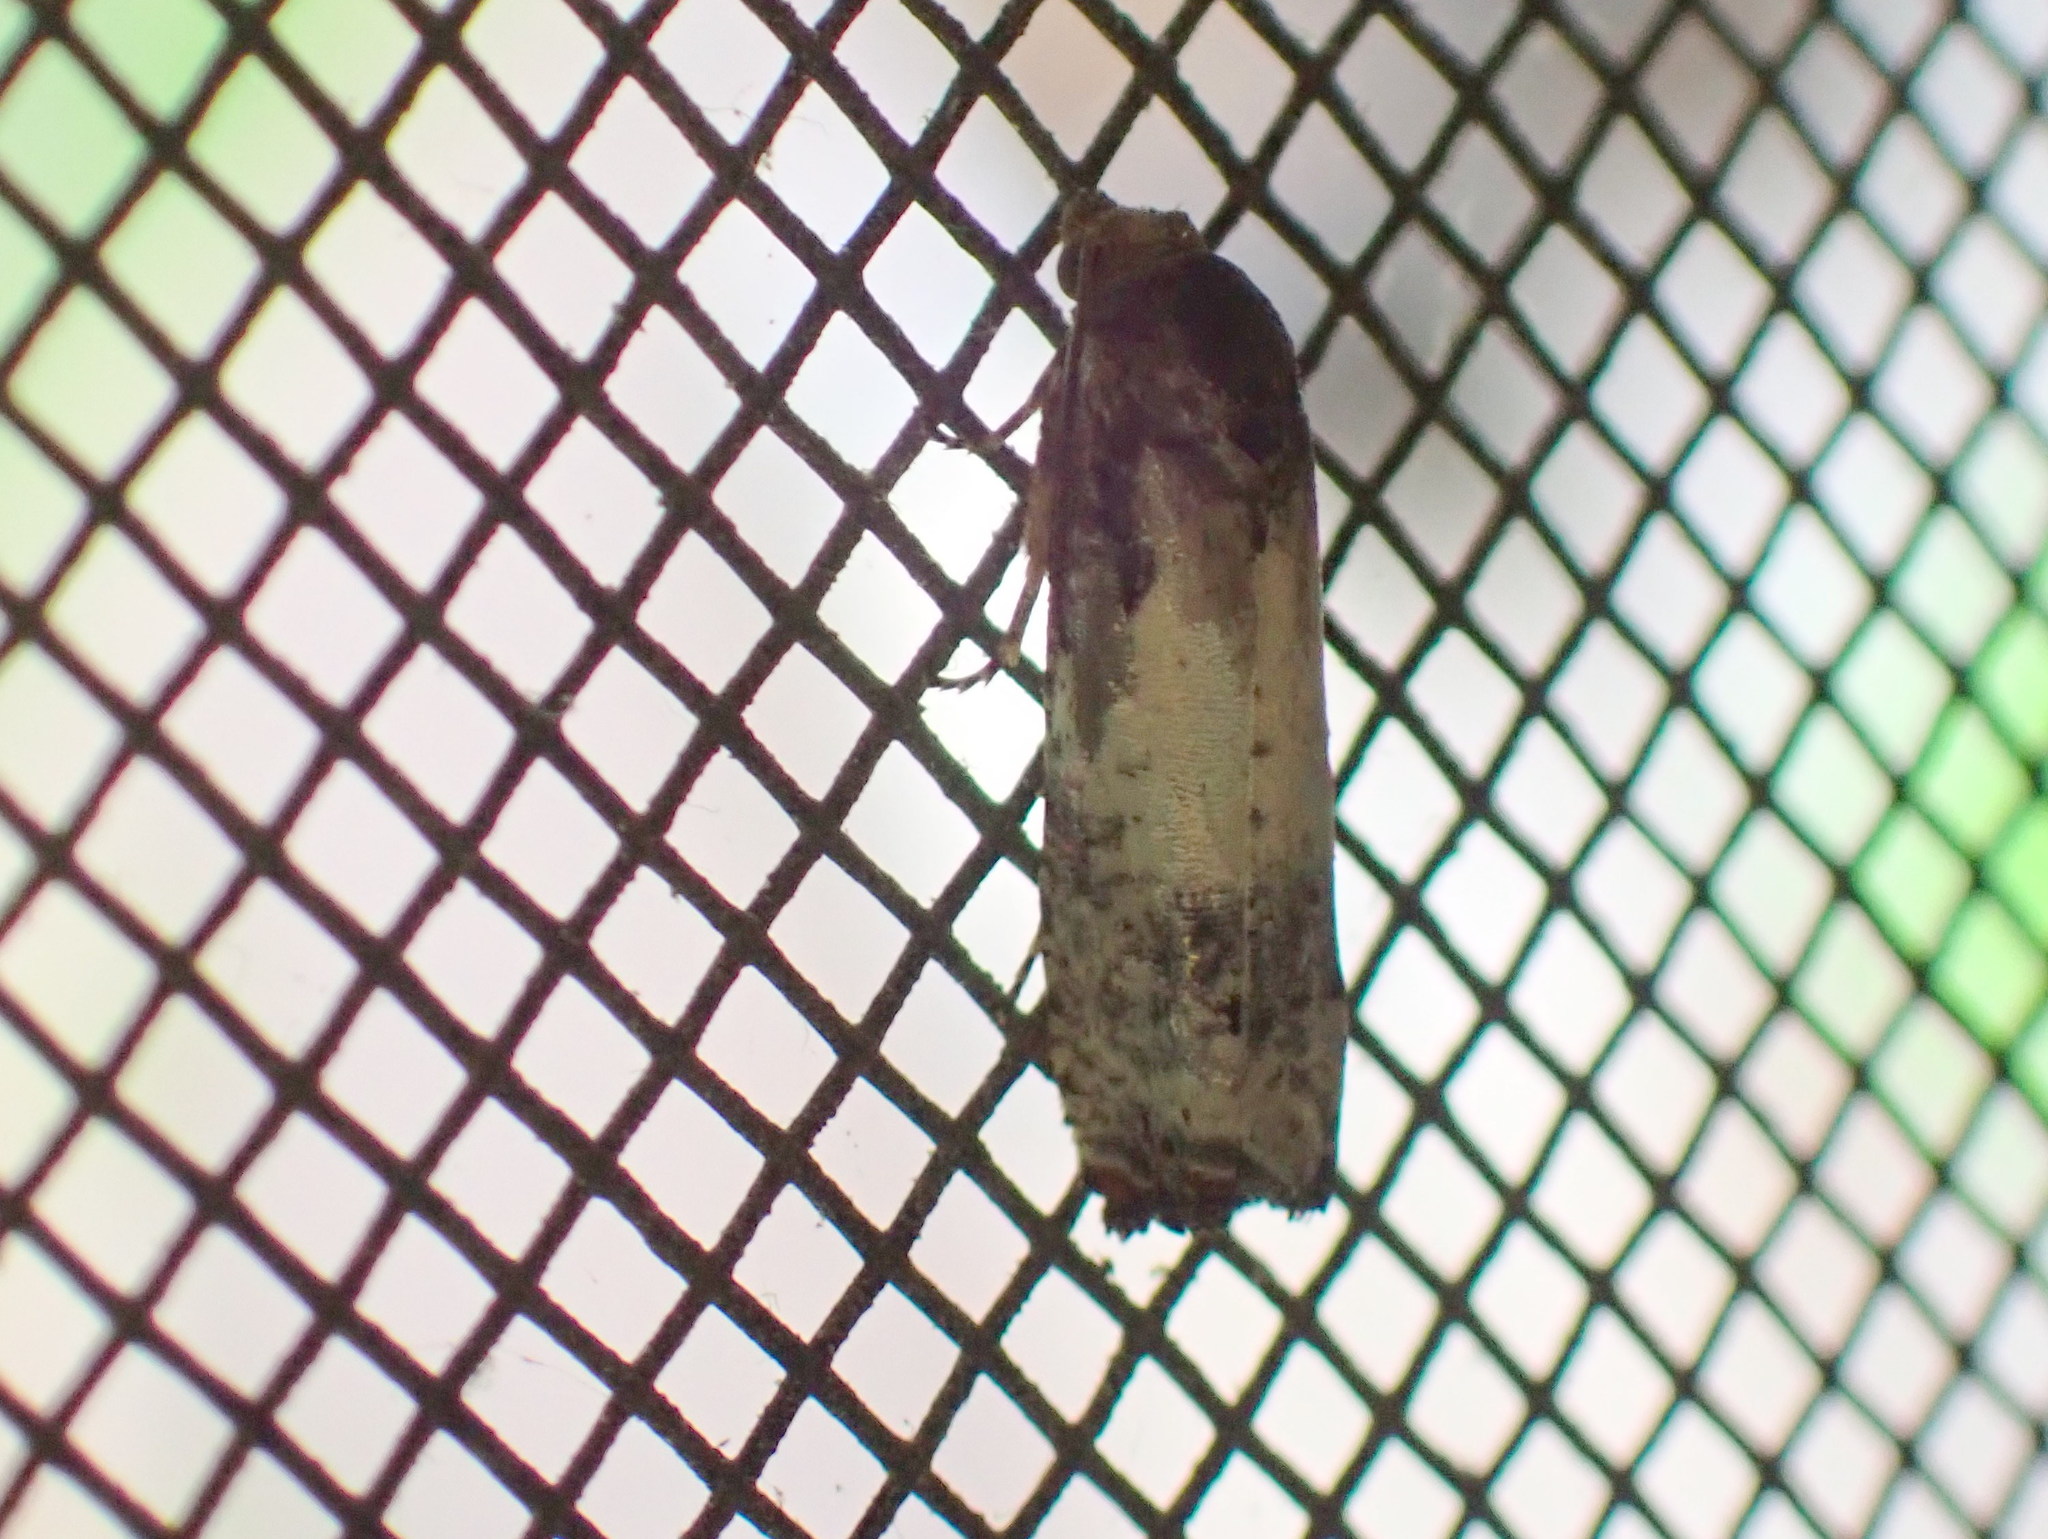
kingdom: Animalia
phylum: Arthropoda
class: Insecta
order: Lepidoptera
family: Tortricidae
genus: Epiblema
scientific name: Epiblema scudderiana
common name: Goldenrod gall moth
